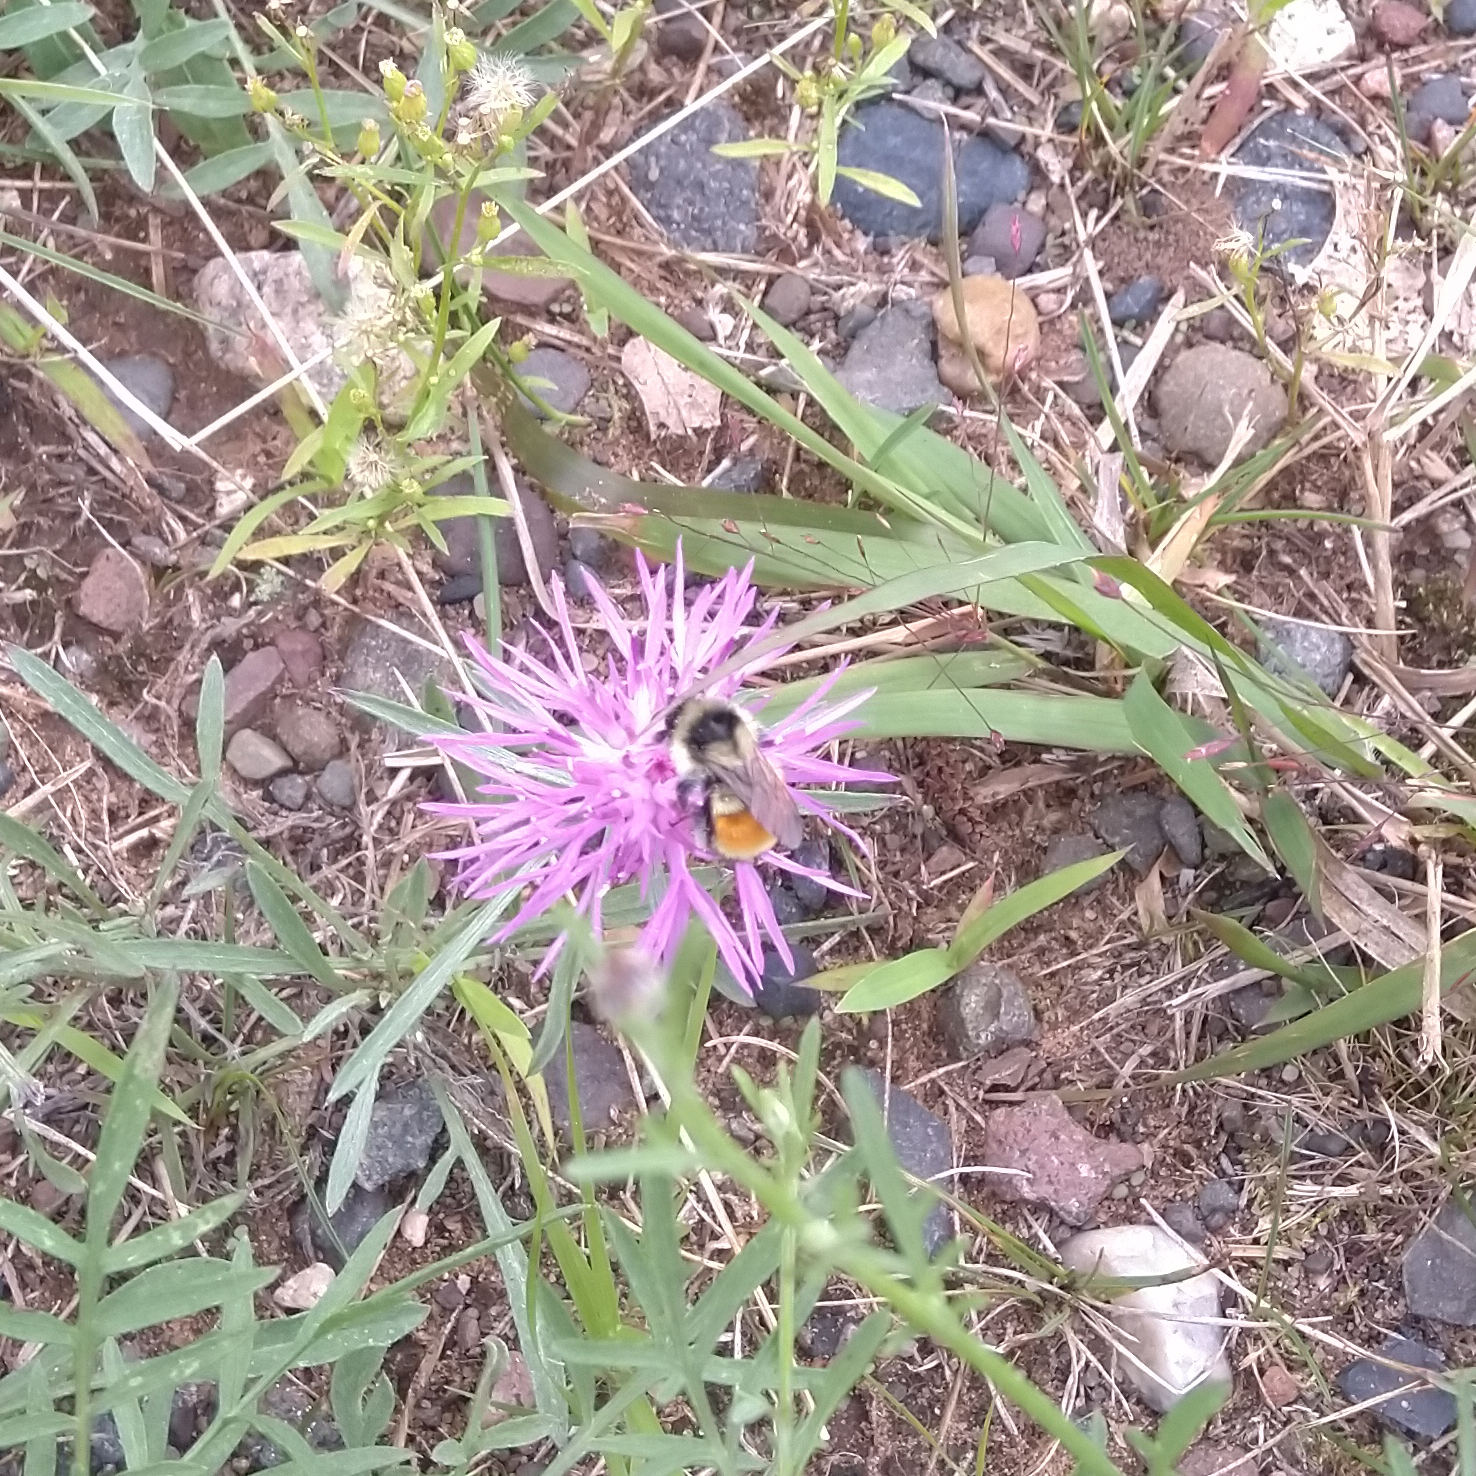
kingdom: Animalia
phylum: Arthropoda
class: Insecta
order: Hymenoptera
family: Apidae
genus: Bombus
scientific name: Bombus ternarius
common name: Tri-colored bumble bee
